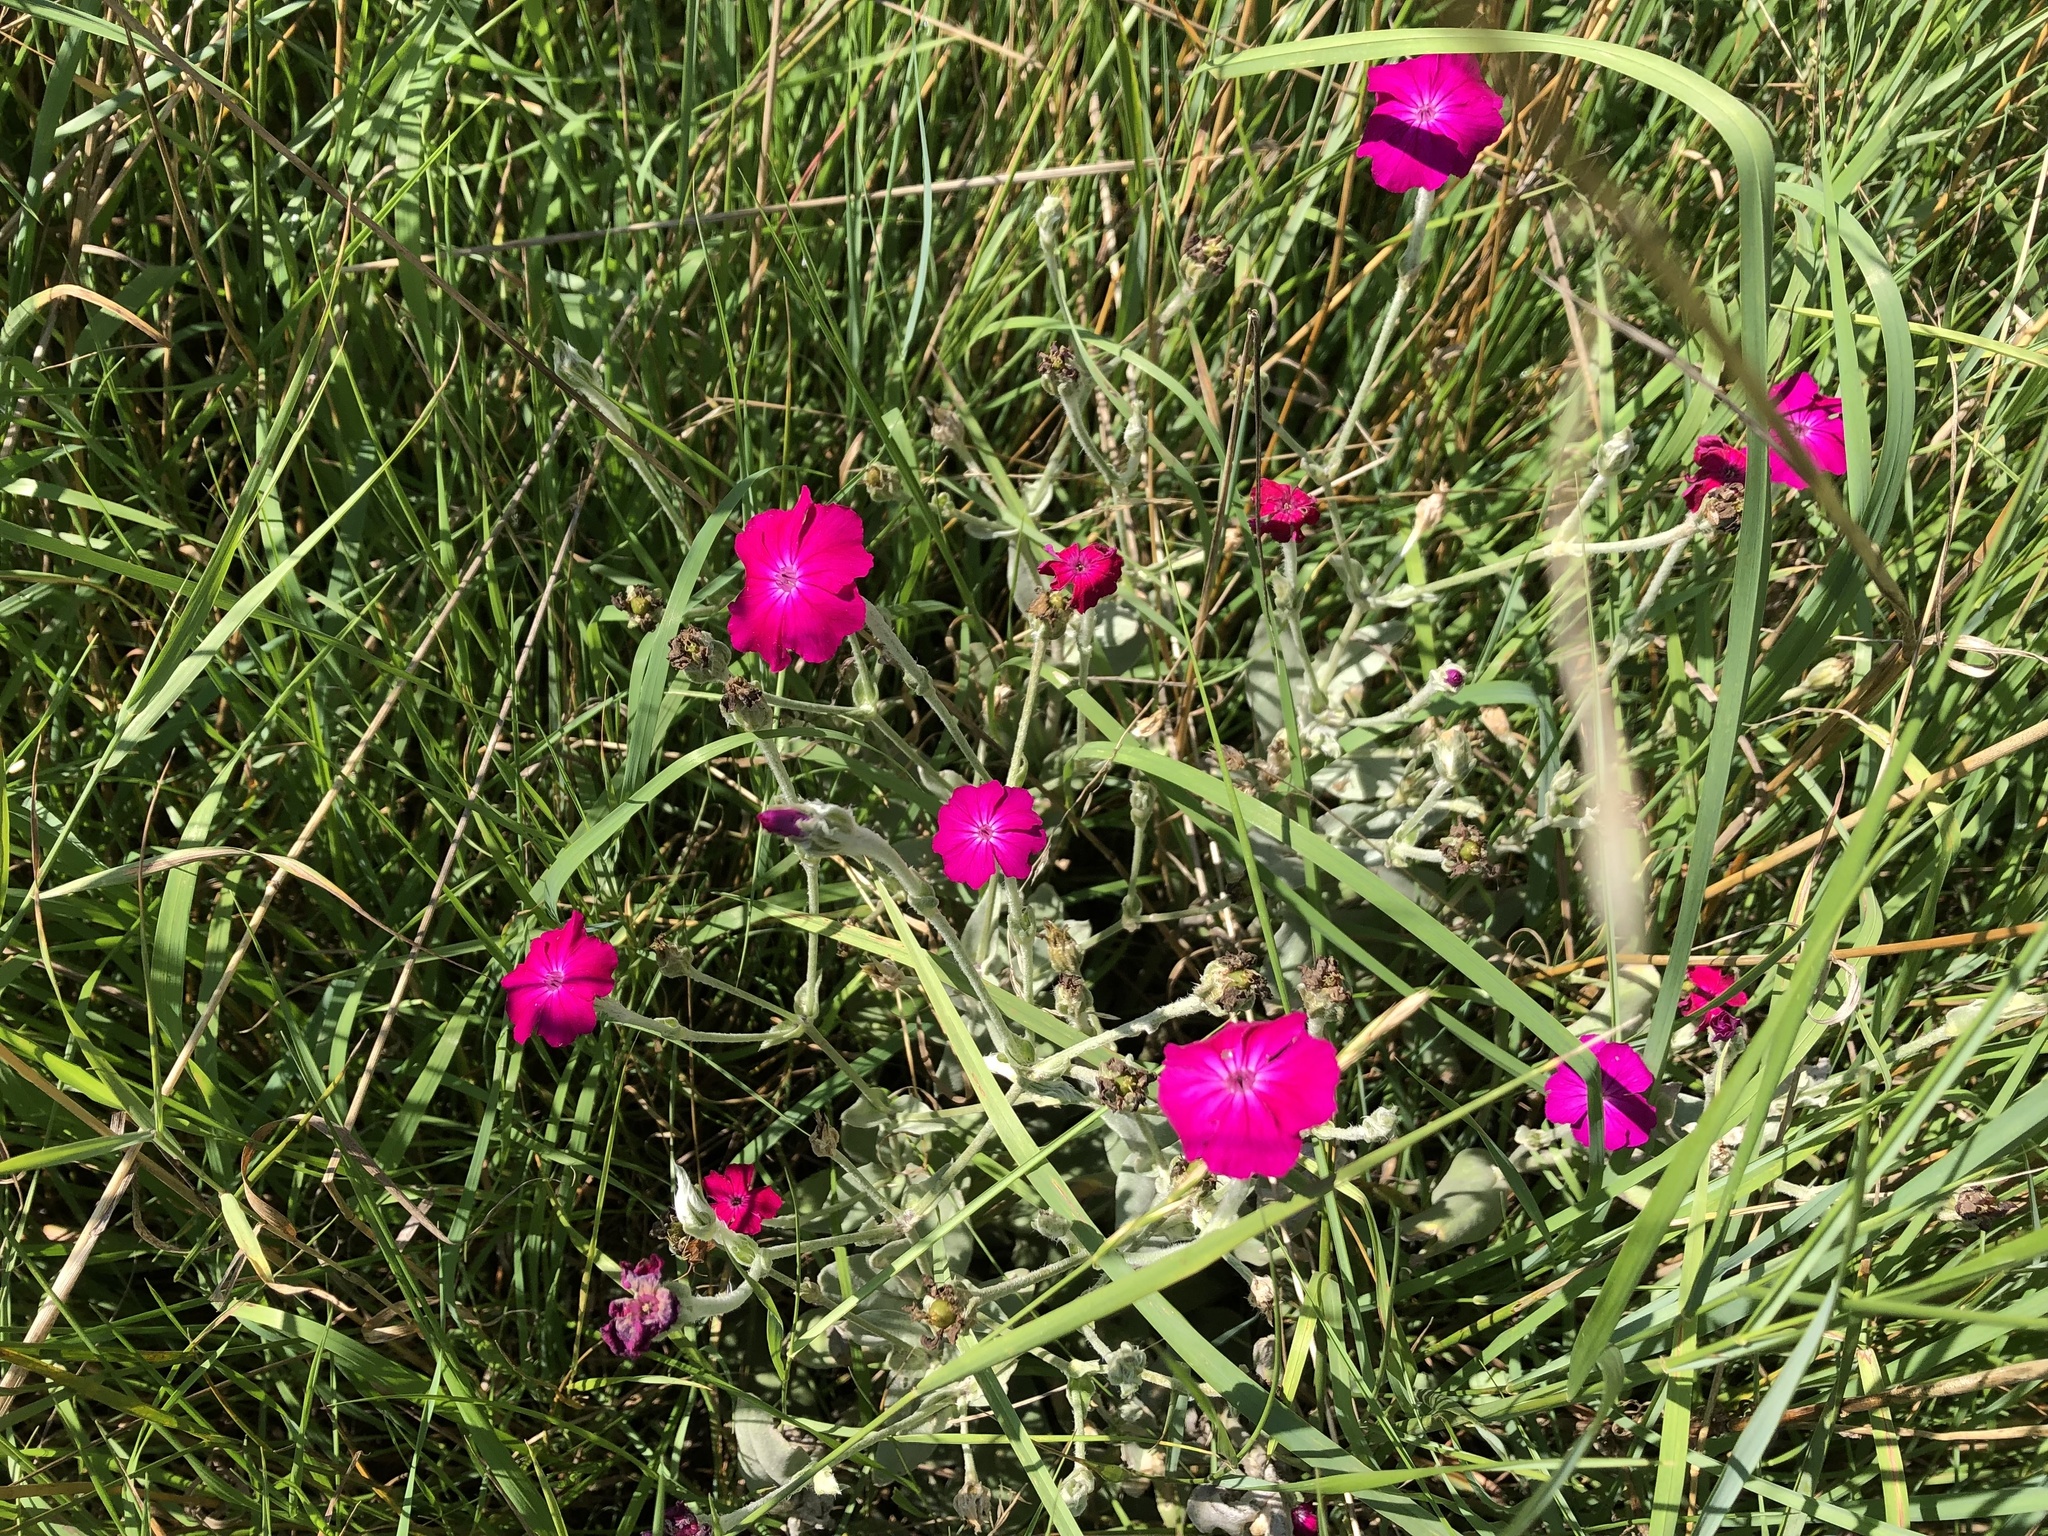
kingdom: Plantae
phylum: Tracheophyta
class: Magnoliopsida
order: Caryophyllales
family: Caryophyllaceae
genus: Silene
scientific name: Silene coronaria
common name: Rose campion
